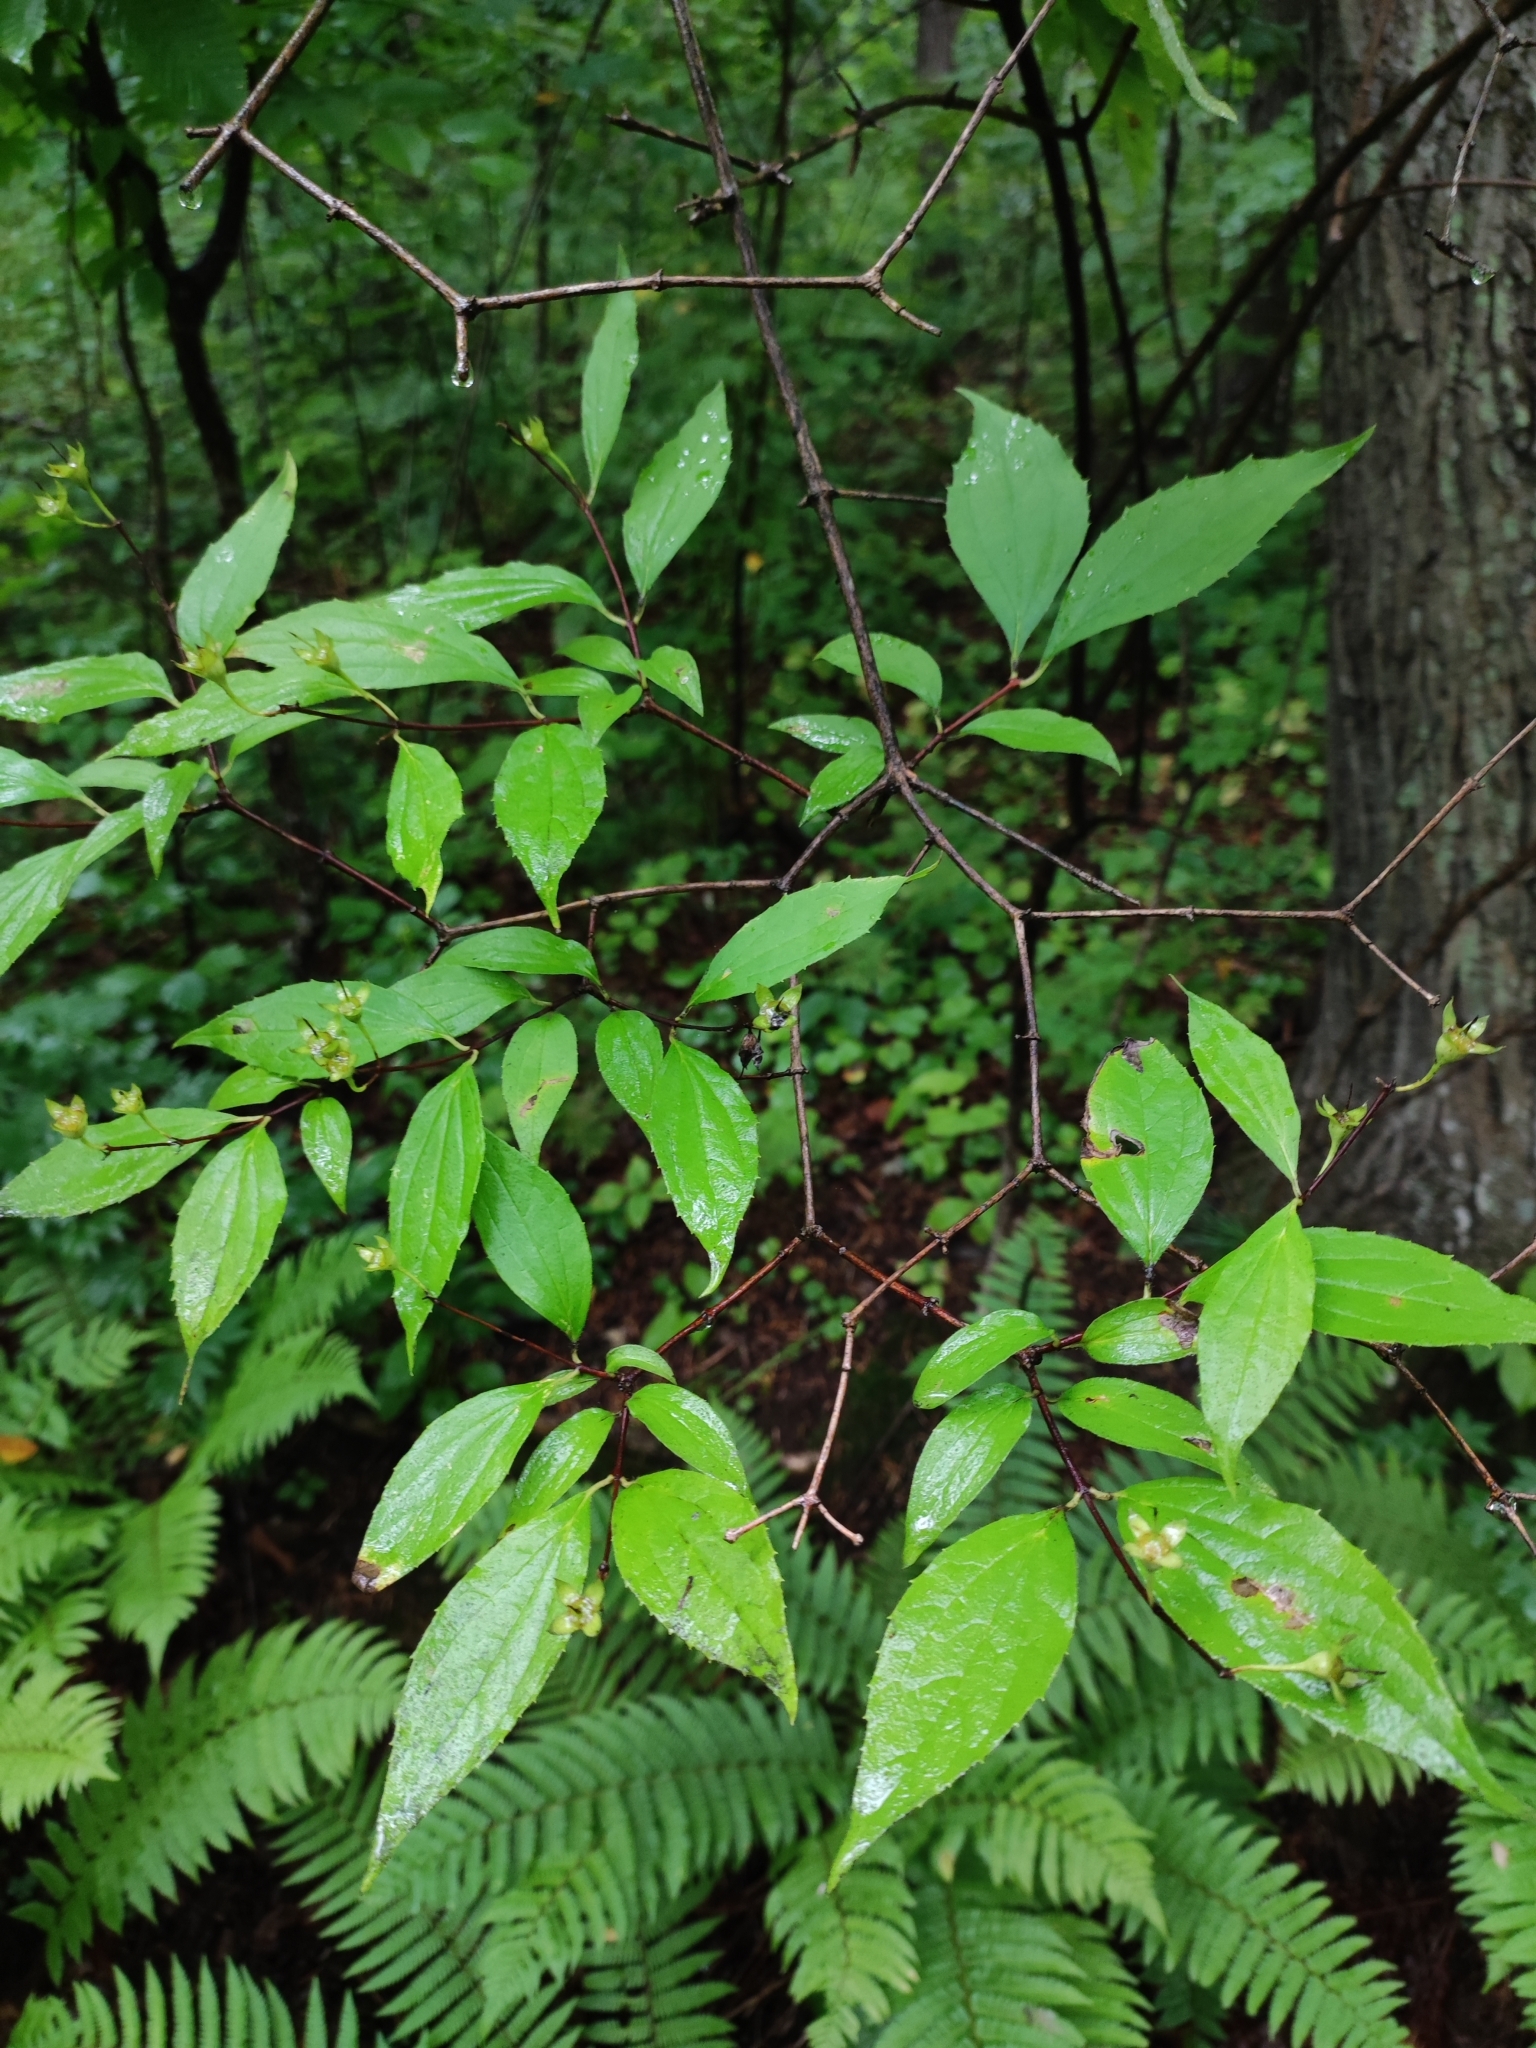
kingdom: Plantae
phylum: Tracheophyta
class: Magnoliopsida
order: Cornales
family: Hydrangeaceae
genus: Philadelphus
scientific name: Philadelphus tenuifolius
